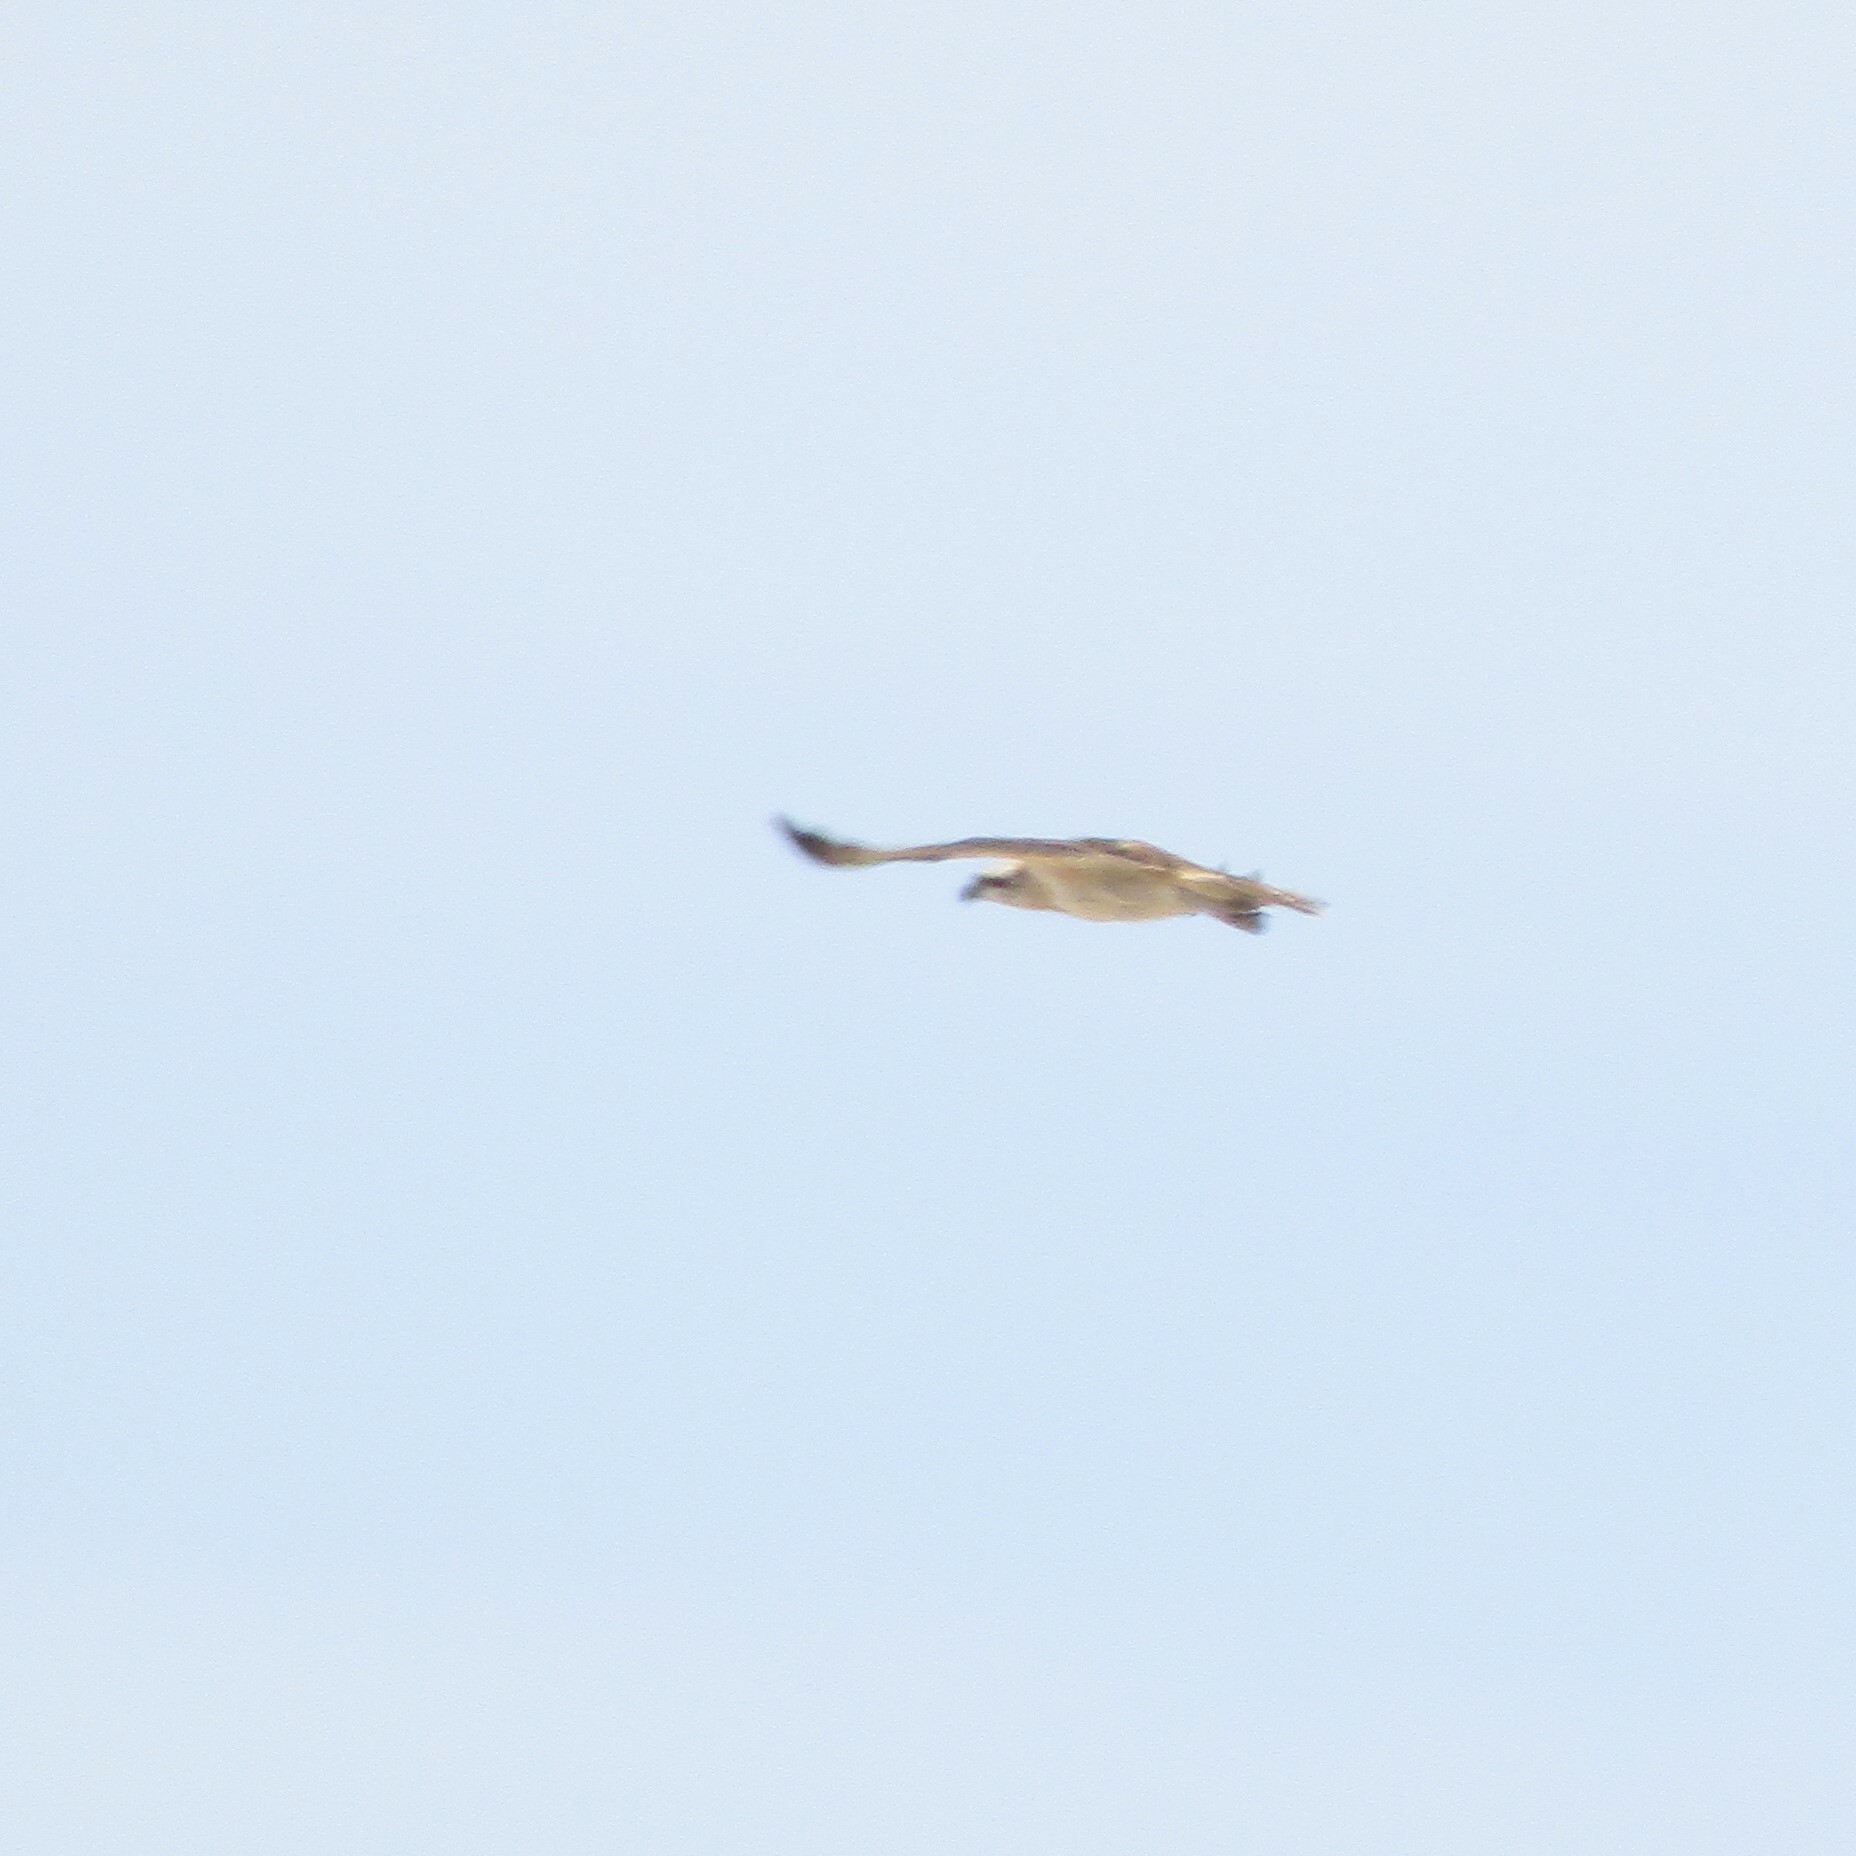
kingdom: Animalia
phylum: Chordata
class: Aves
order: Accipitriformes
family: Pandionidae
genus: Pandion
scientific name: Pandion cristatus
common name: Eastern osprey
